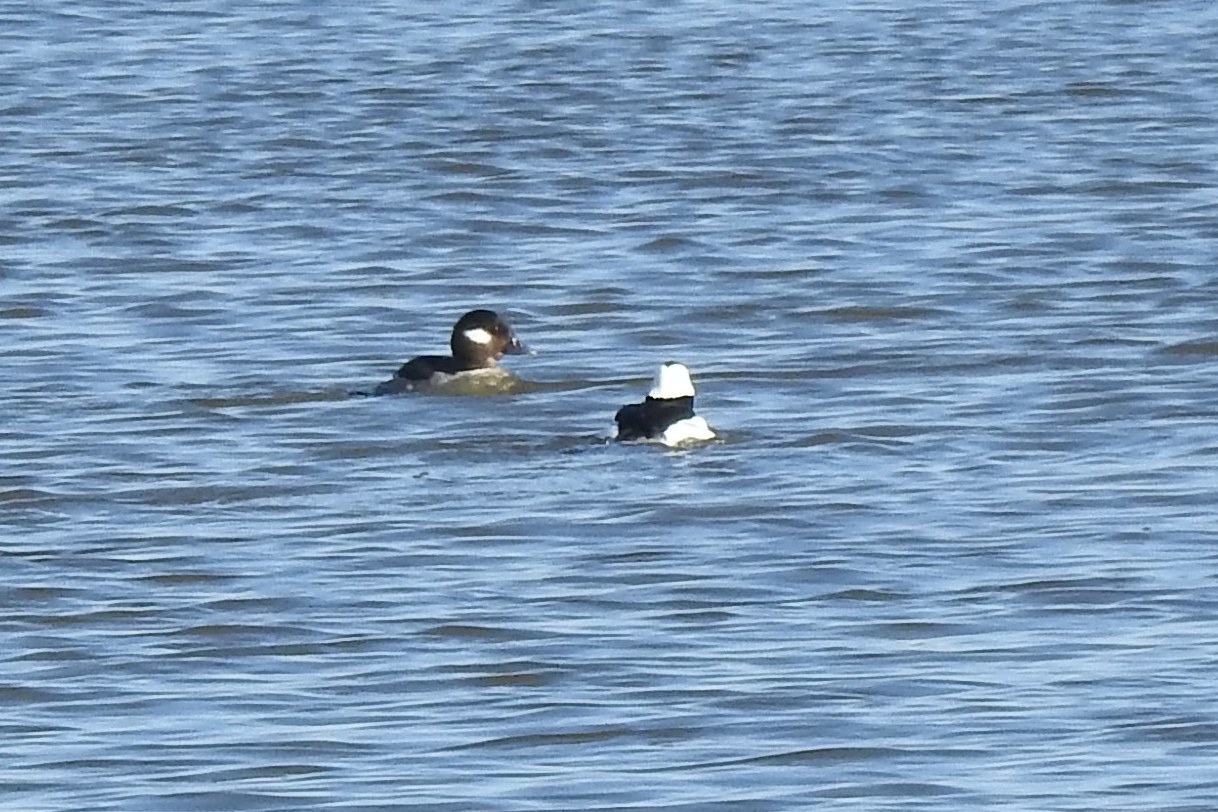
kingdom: Animalia
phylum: Chordata
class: Aves
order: Anseriformes
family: Anatidae
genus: Bucephala
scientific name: Bucephala albeola
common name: Bufflehead
